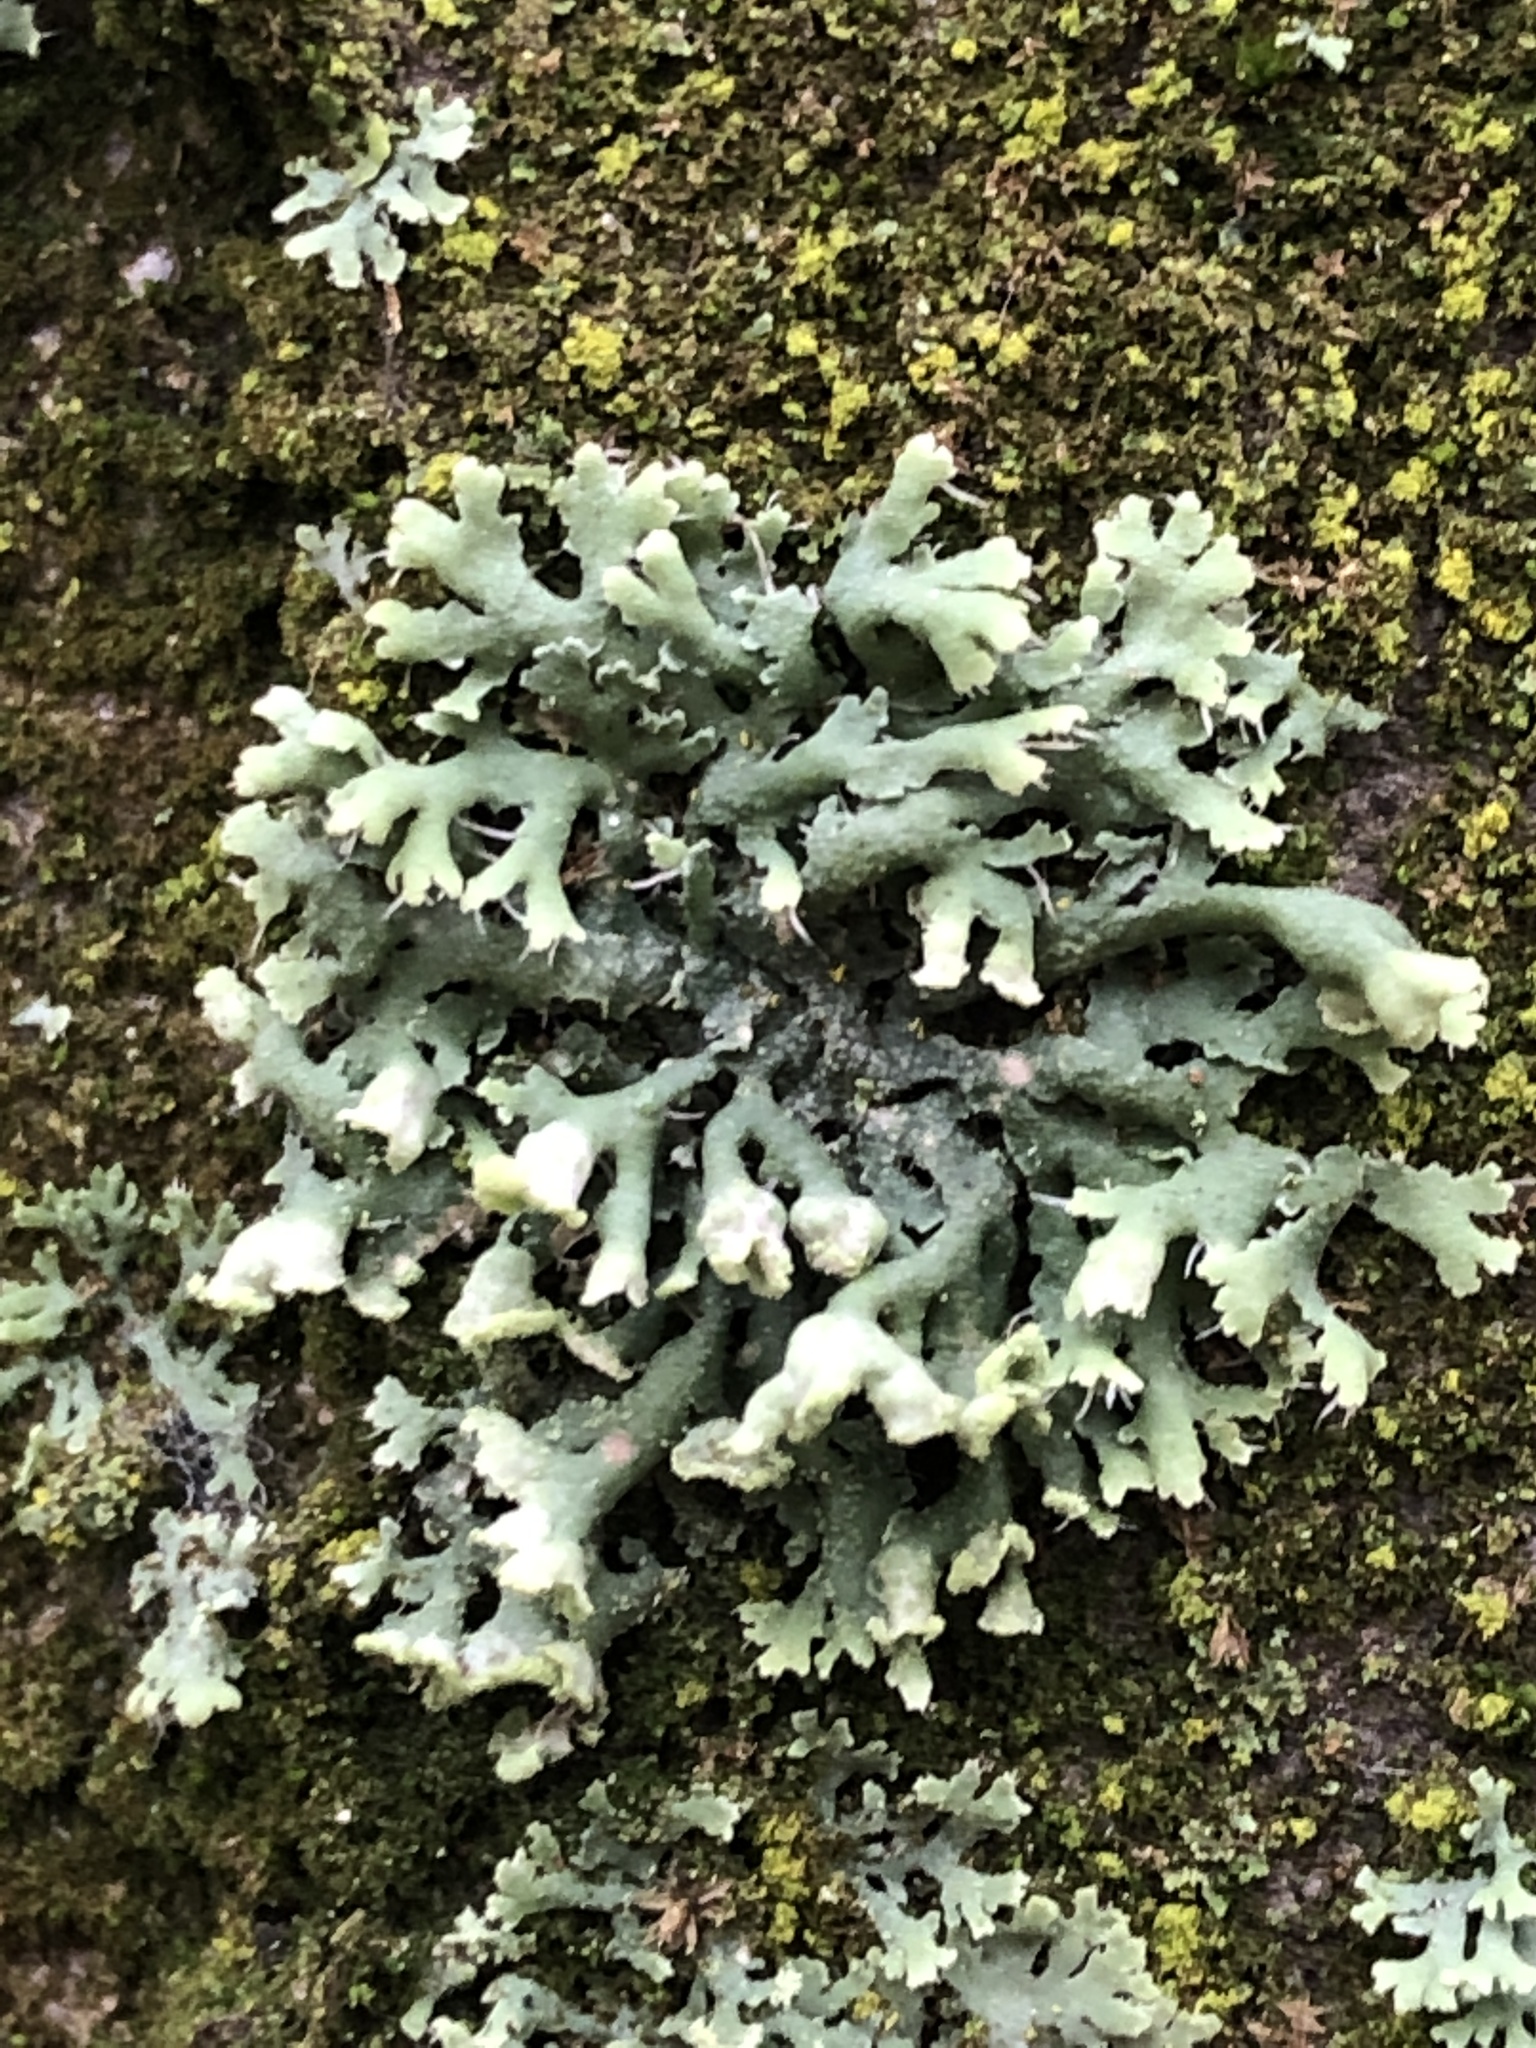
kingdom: Fungi
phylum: Ascomycota
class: Lecanoromycetes
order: Caliciales
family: Physciaceae
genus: Physcia
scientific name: Physcia adscendens
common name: Hooded rosette lichen
